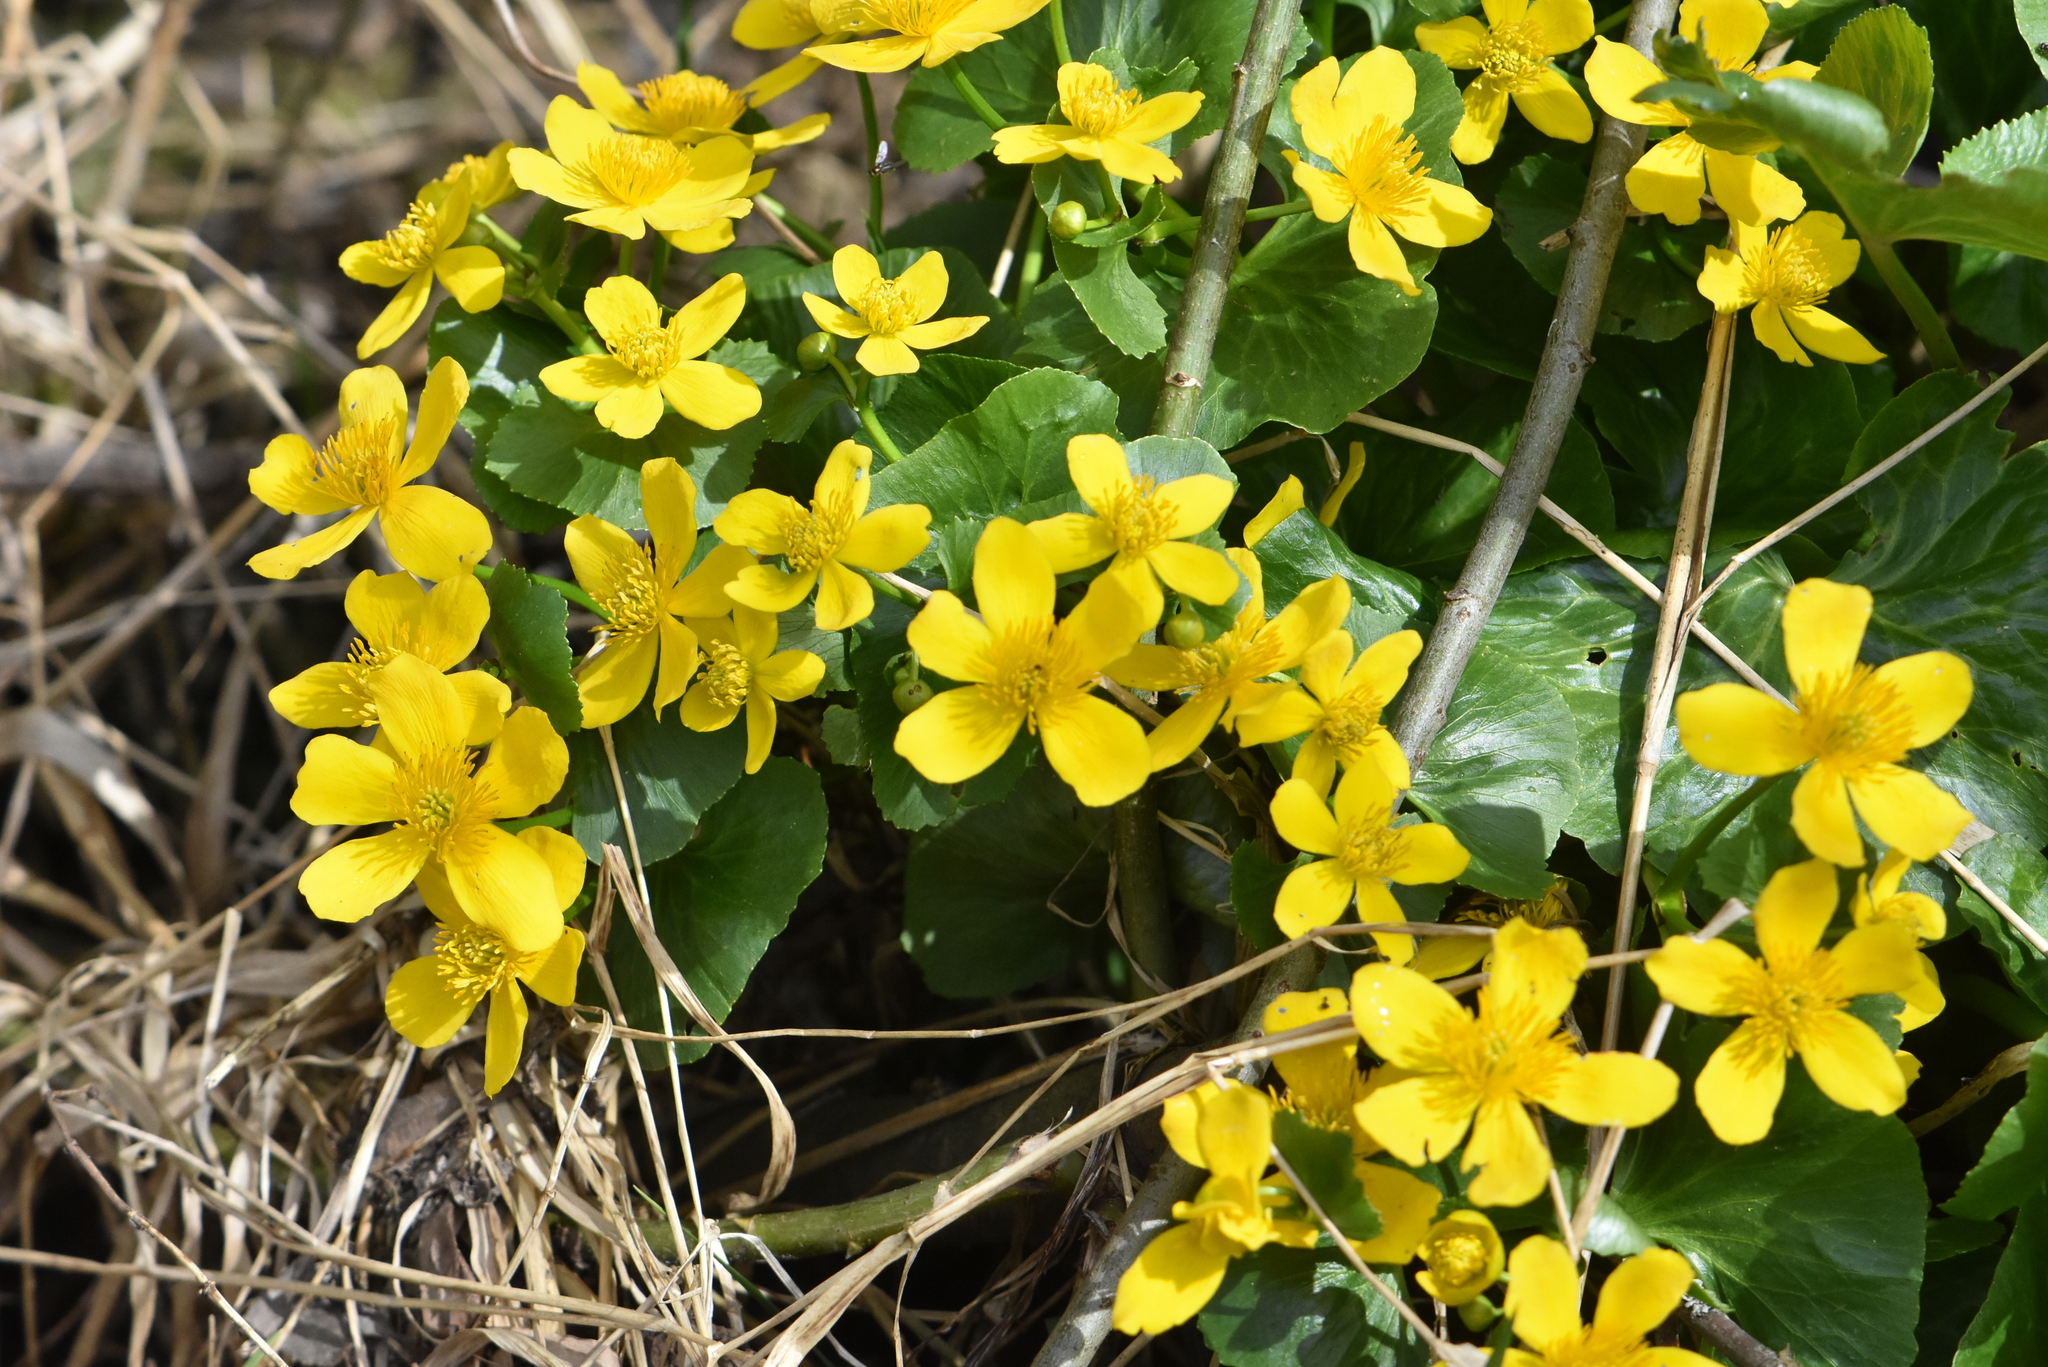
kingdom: Plantae
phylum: Tracheophyta
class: Magnoliopsida
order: Ranunculales
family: Ranunculaceae
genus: Caltha
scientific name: Caltha palustris
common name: Marsh marigold
